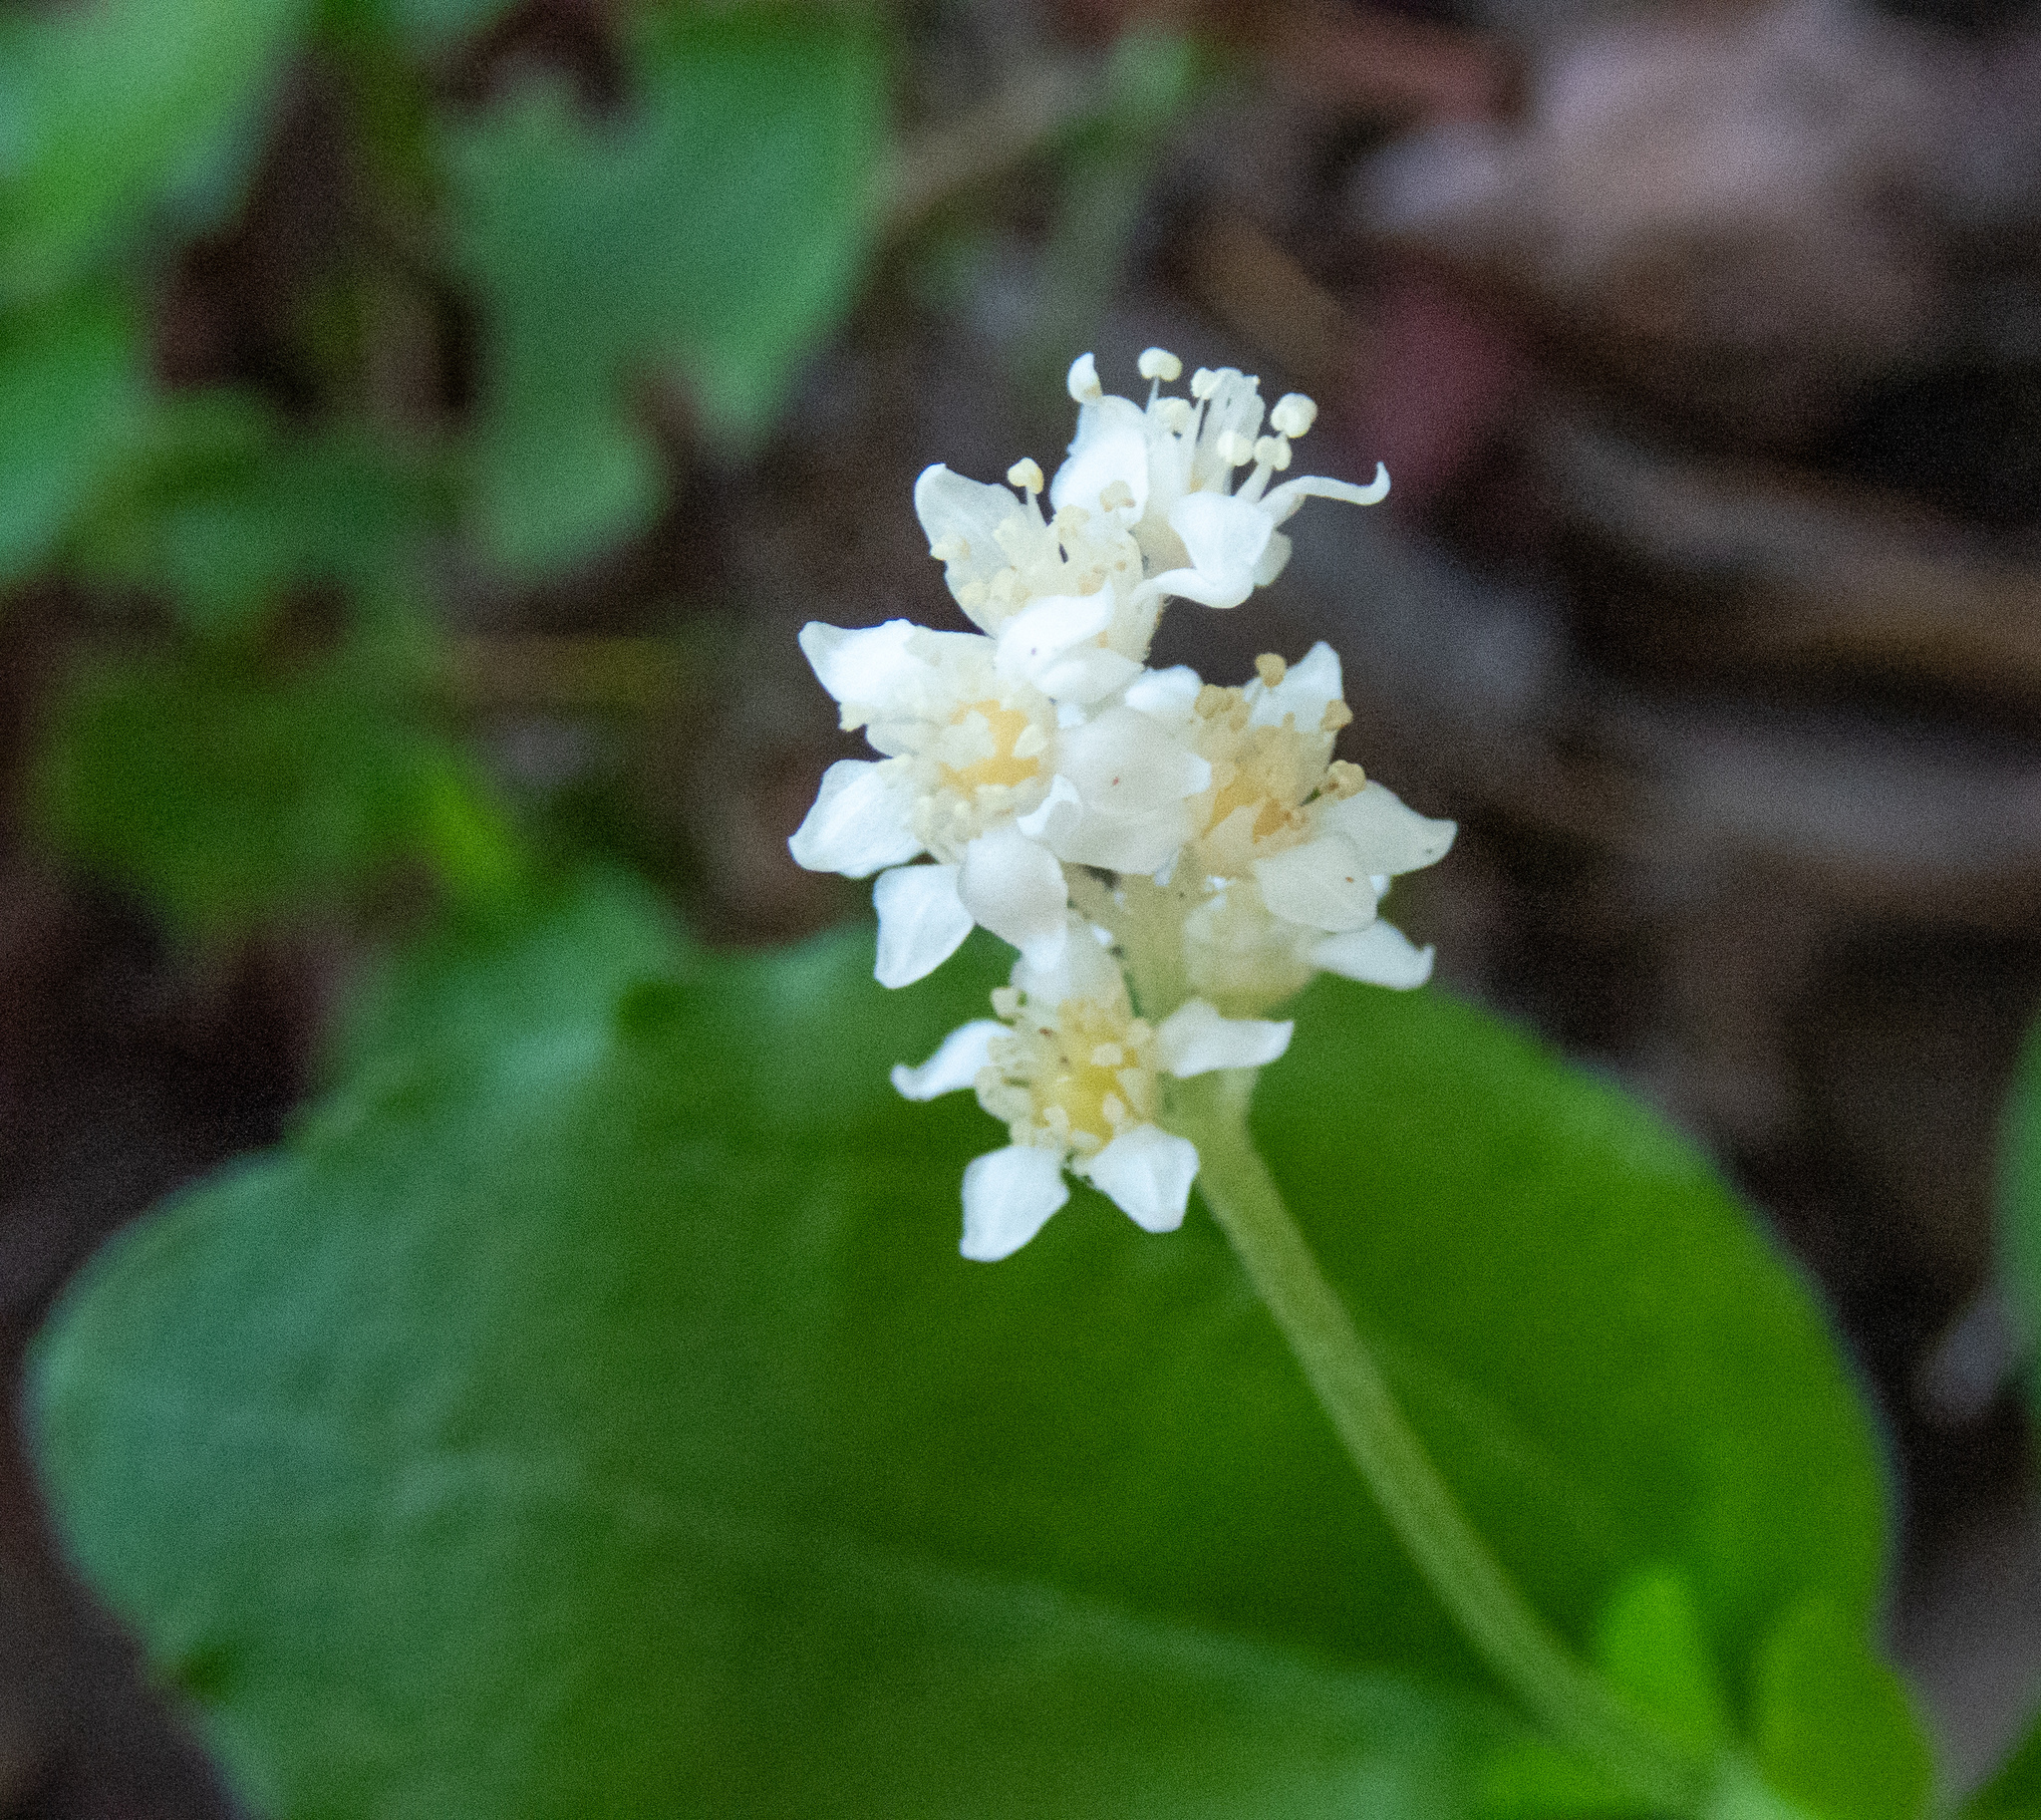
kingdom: Plantae
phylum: Tracheophyta
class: Magnoliopsida
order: Cornales
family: Hydrangeaceae
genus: Whipplea
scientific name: Whipplea modesta
